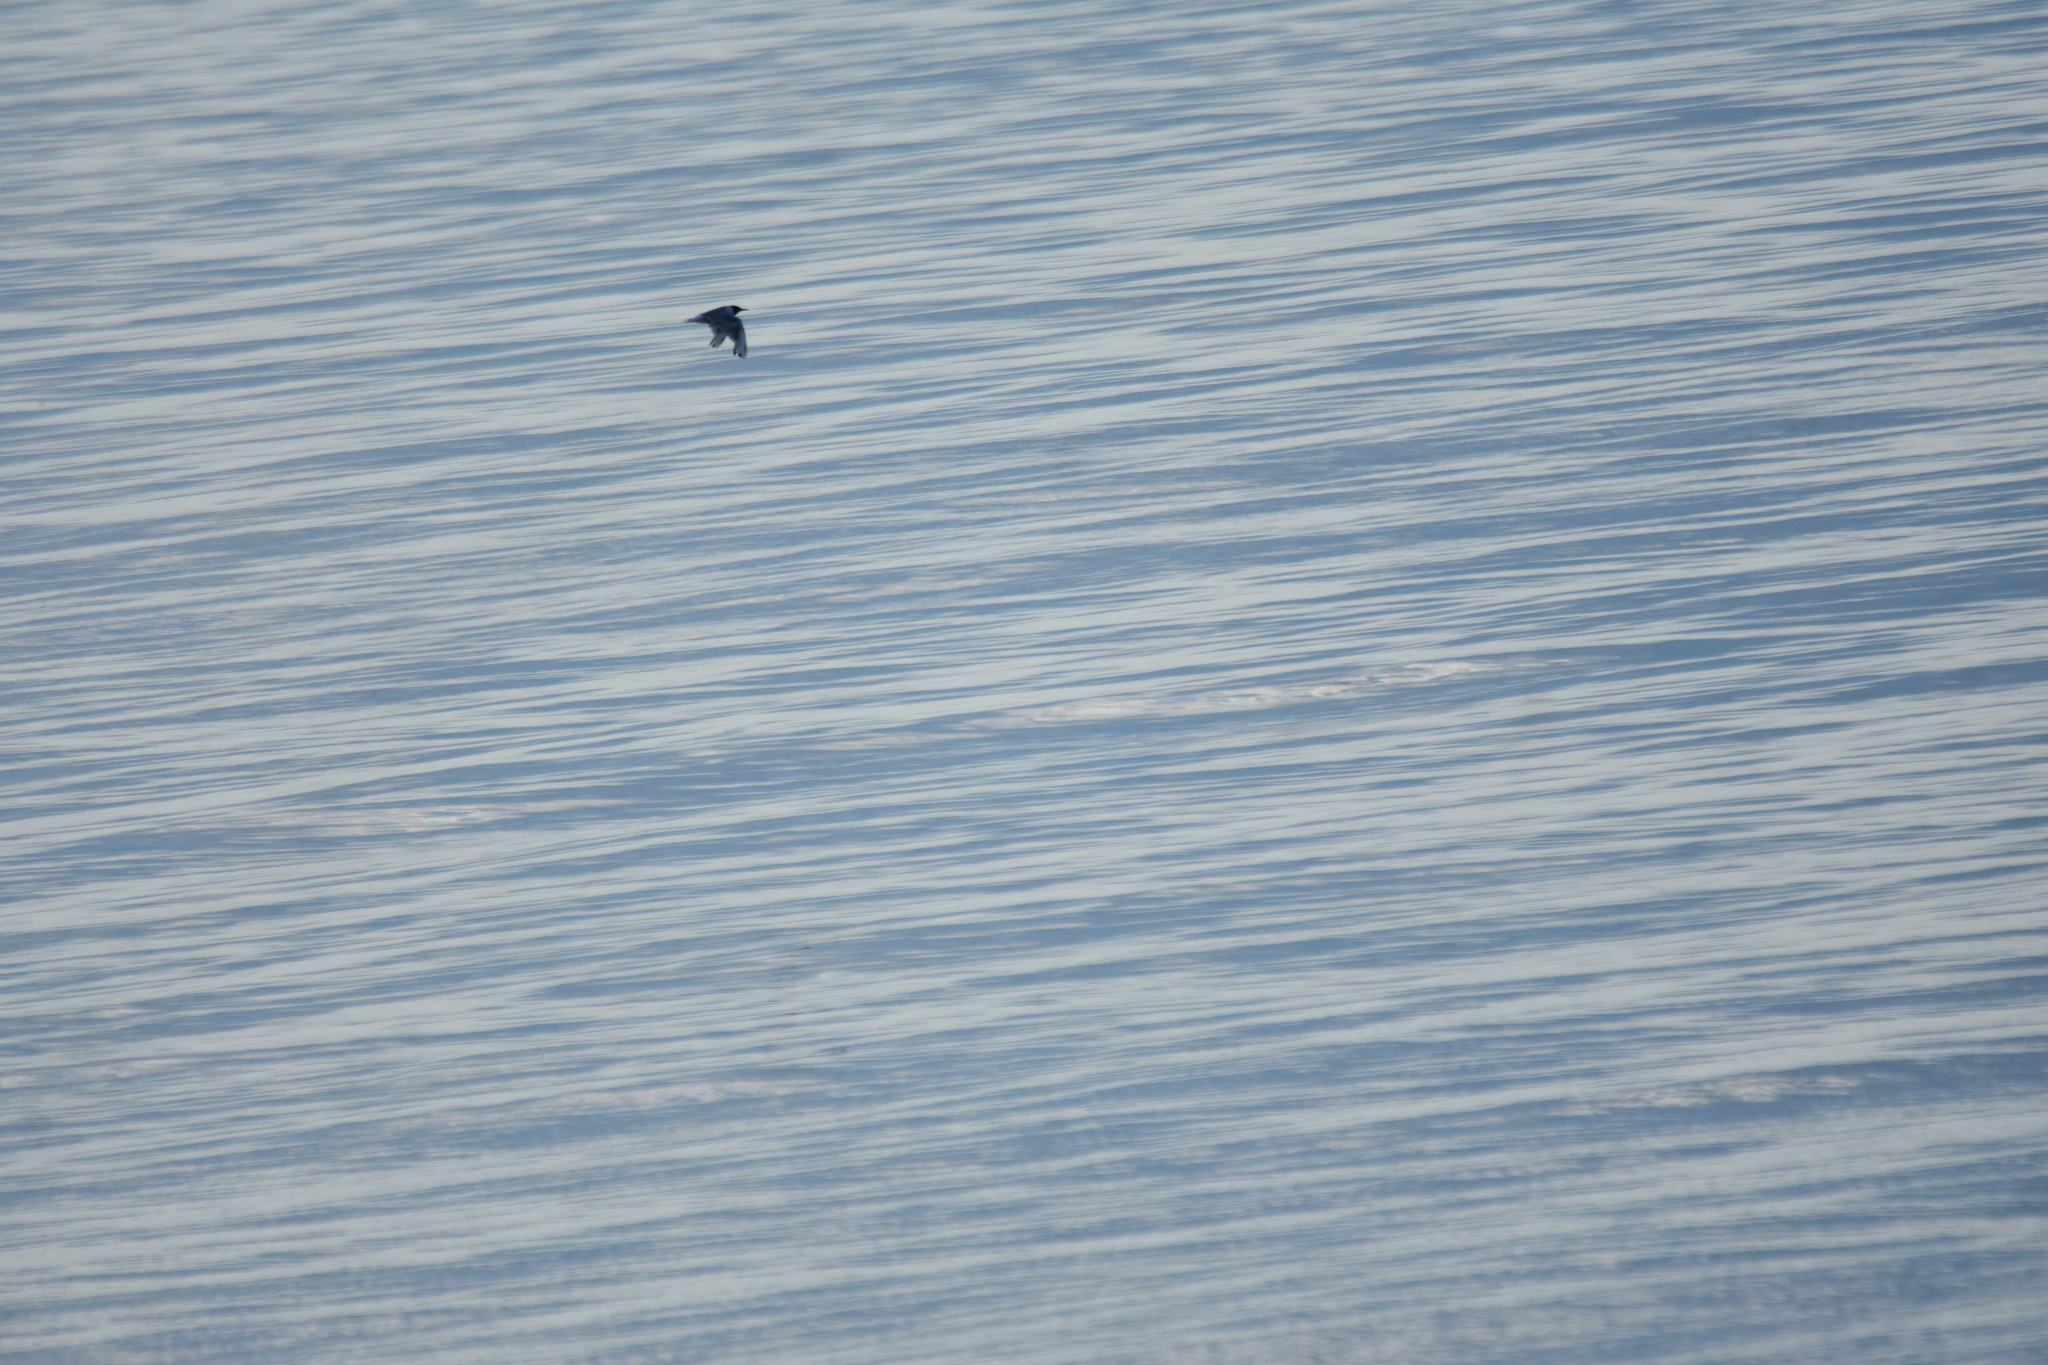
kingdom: Animalia
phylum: Chordata
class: Aves
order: Charadriiformes
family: Laridae
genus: Chroicocephalus
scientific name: Chroicocephalus philadelphia
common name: Bonaparte's gull
